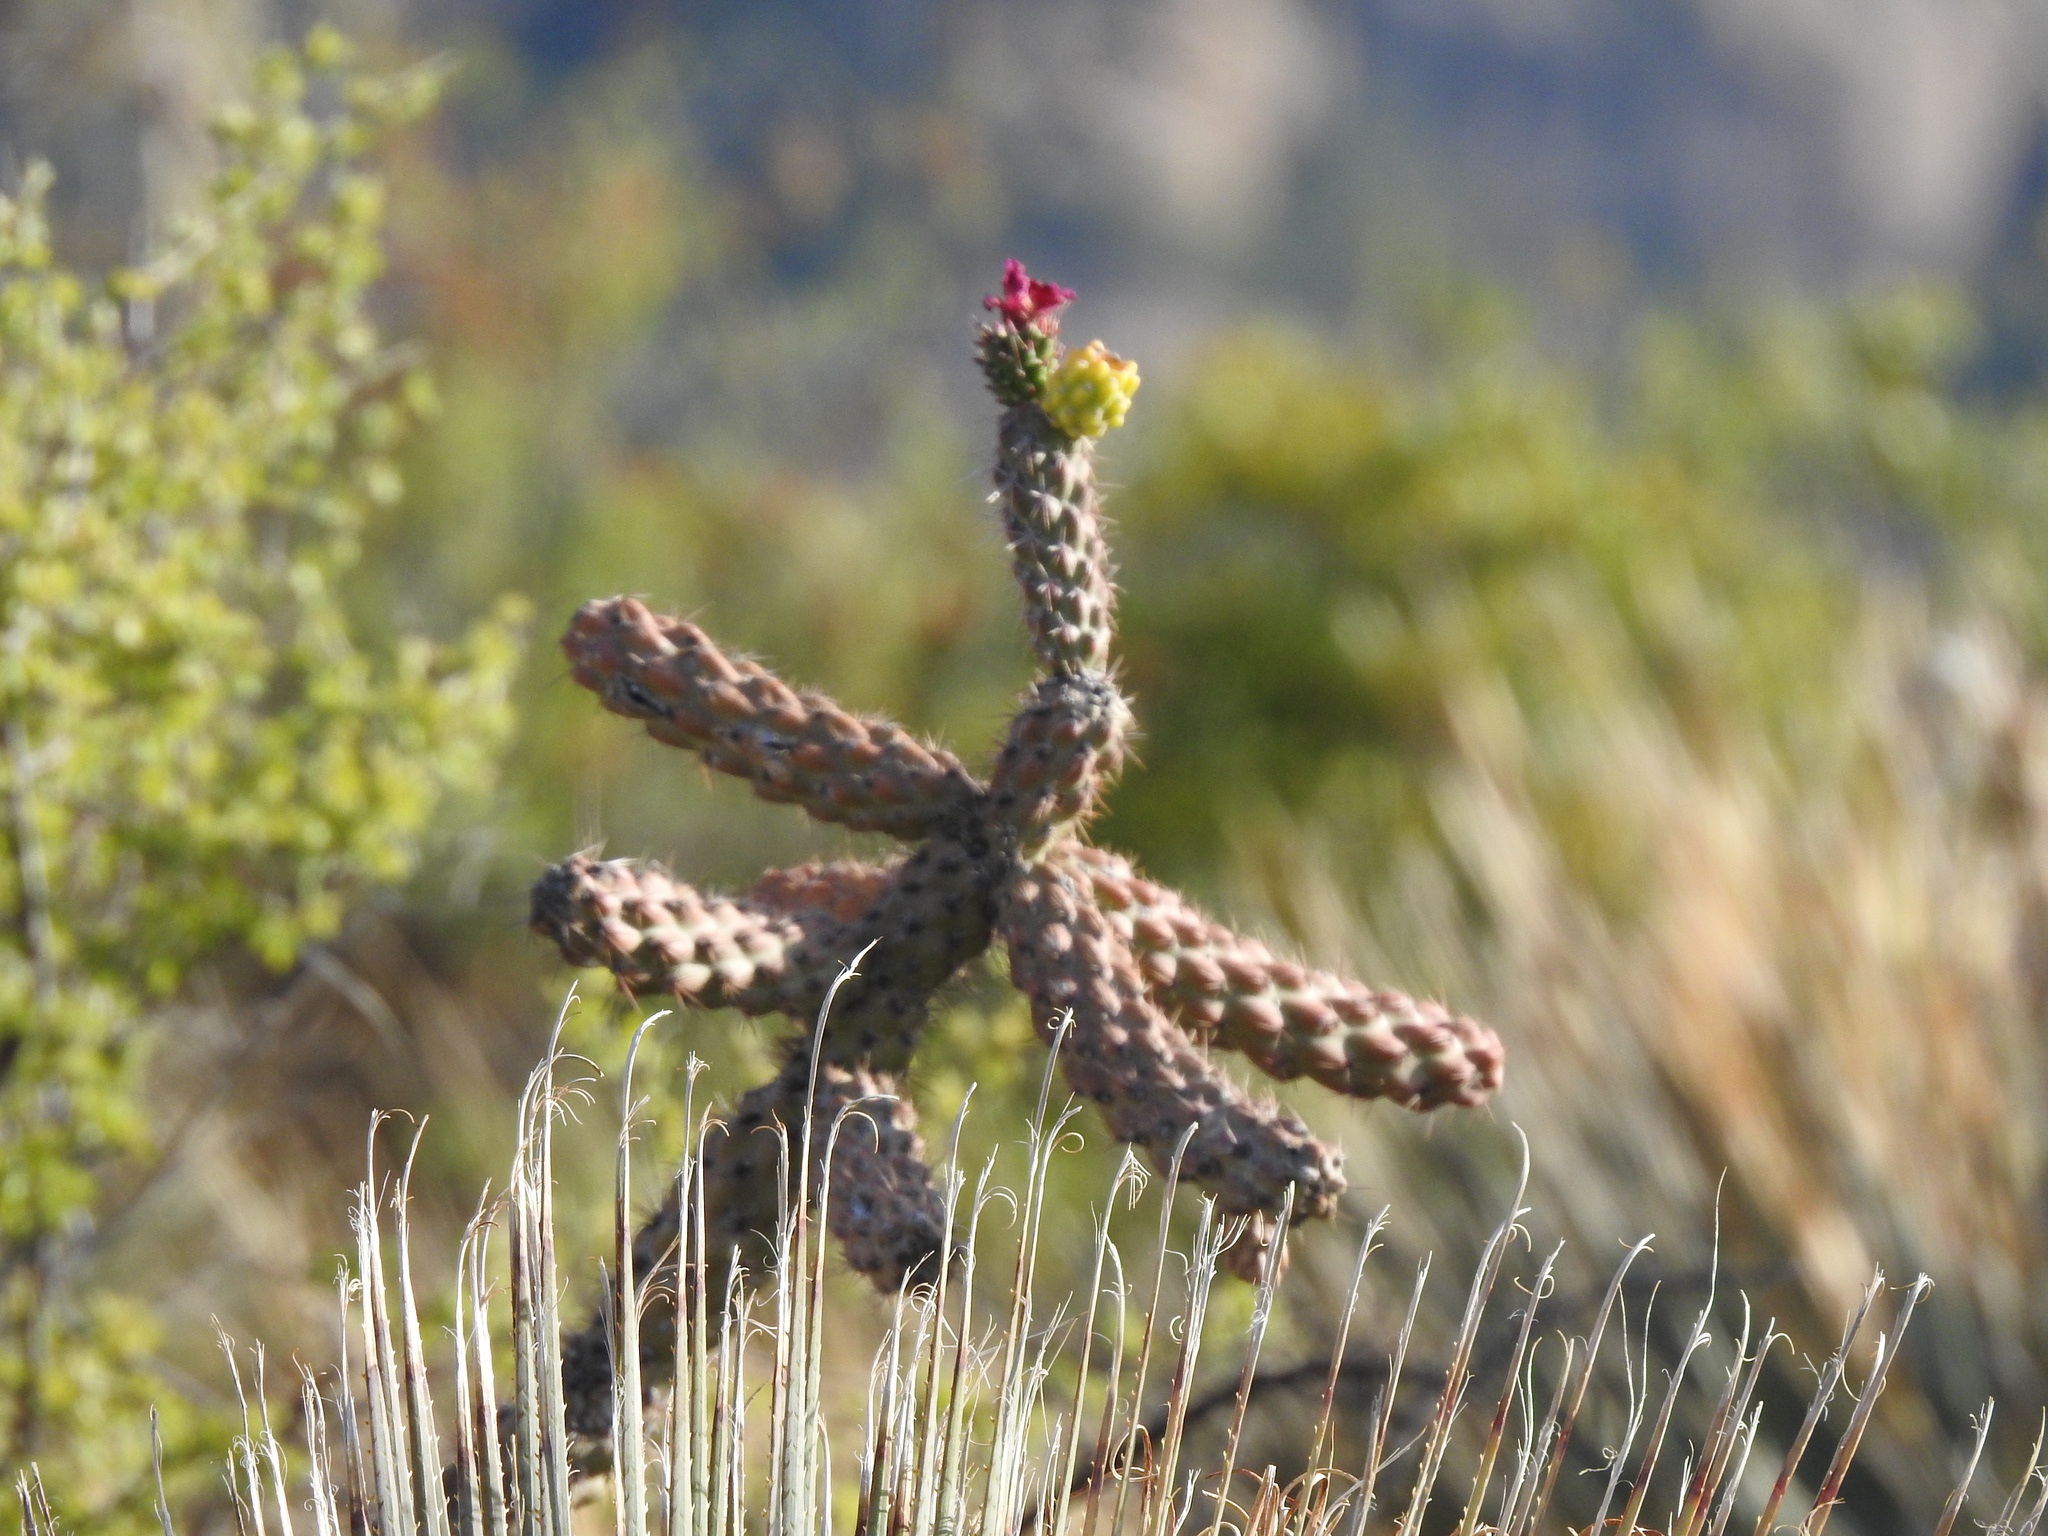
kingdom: Plantae
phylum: Tracheophyta
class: Magnoliopsida
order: Caryophyllales
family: Cactaceae
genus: Cylindropuntia
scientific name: Cylindropuntia imbricata
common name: Candelabrum cactus
